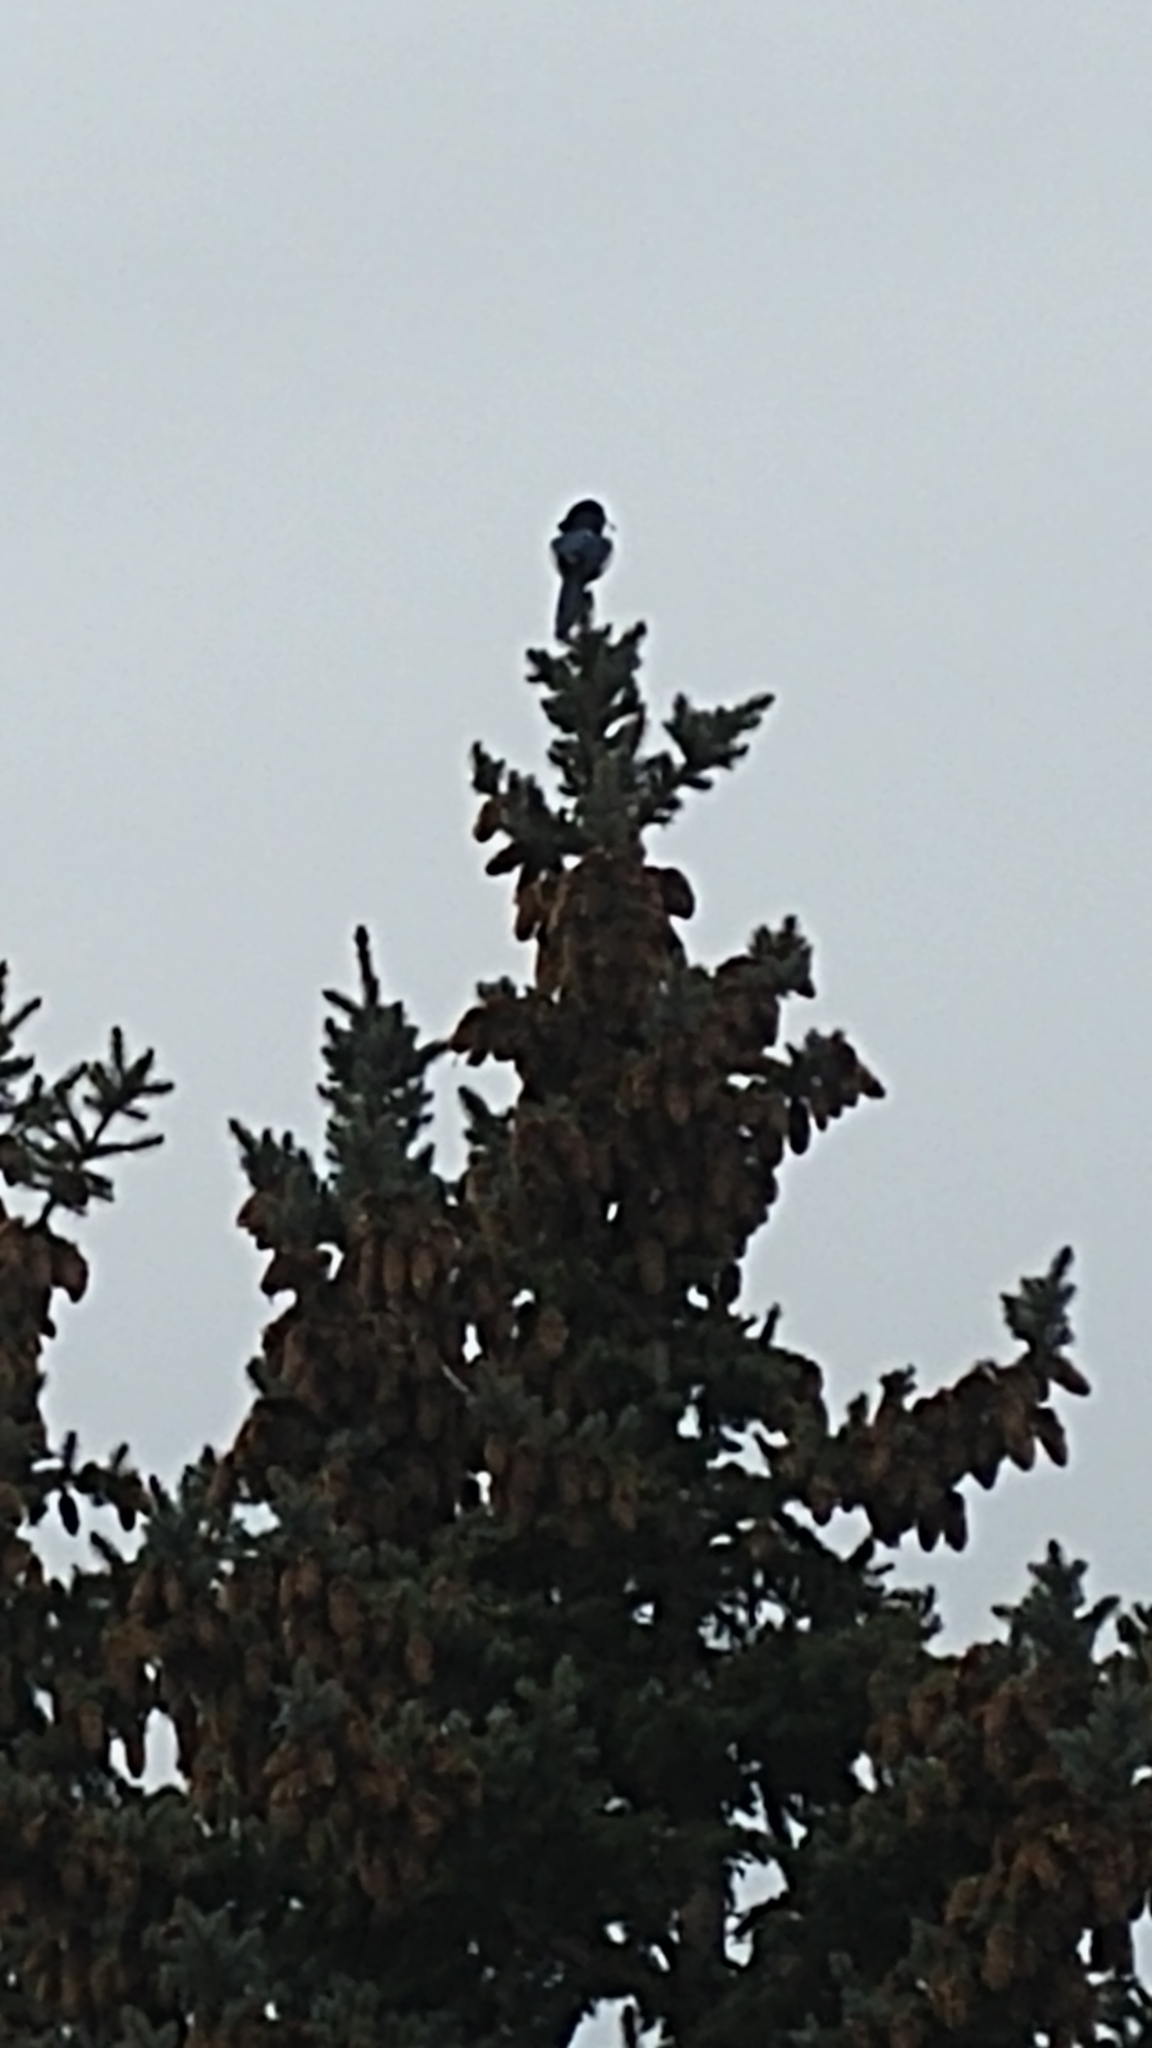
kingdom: Animalia
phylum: Chordata
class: Aves
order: Passeriformes
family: Corvidae
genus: Pica
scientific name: Pica hudsonia
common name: Black-billed magpie
